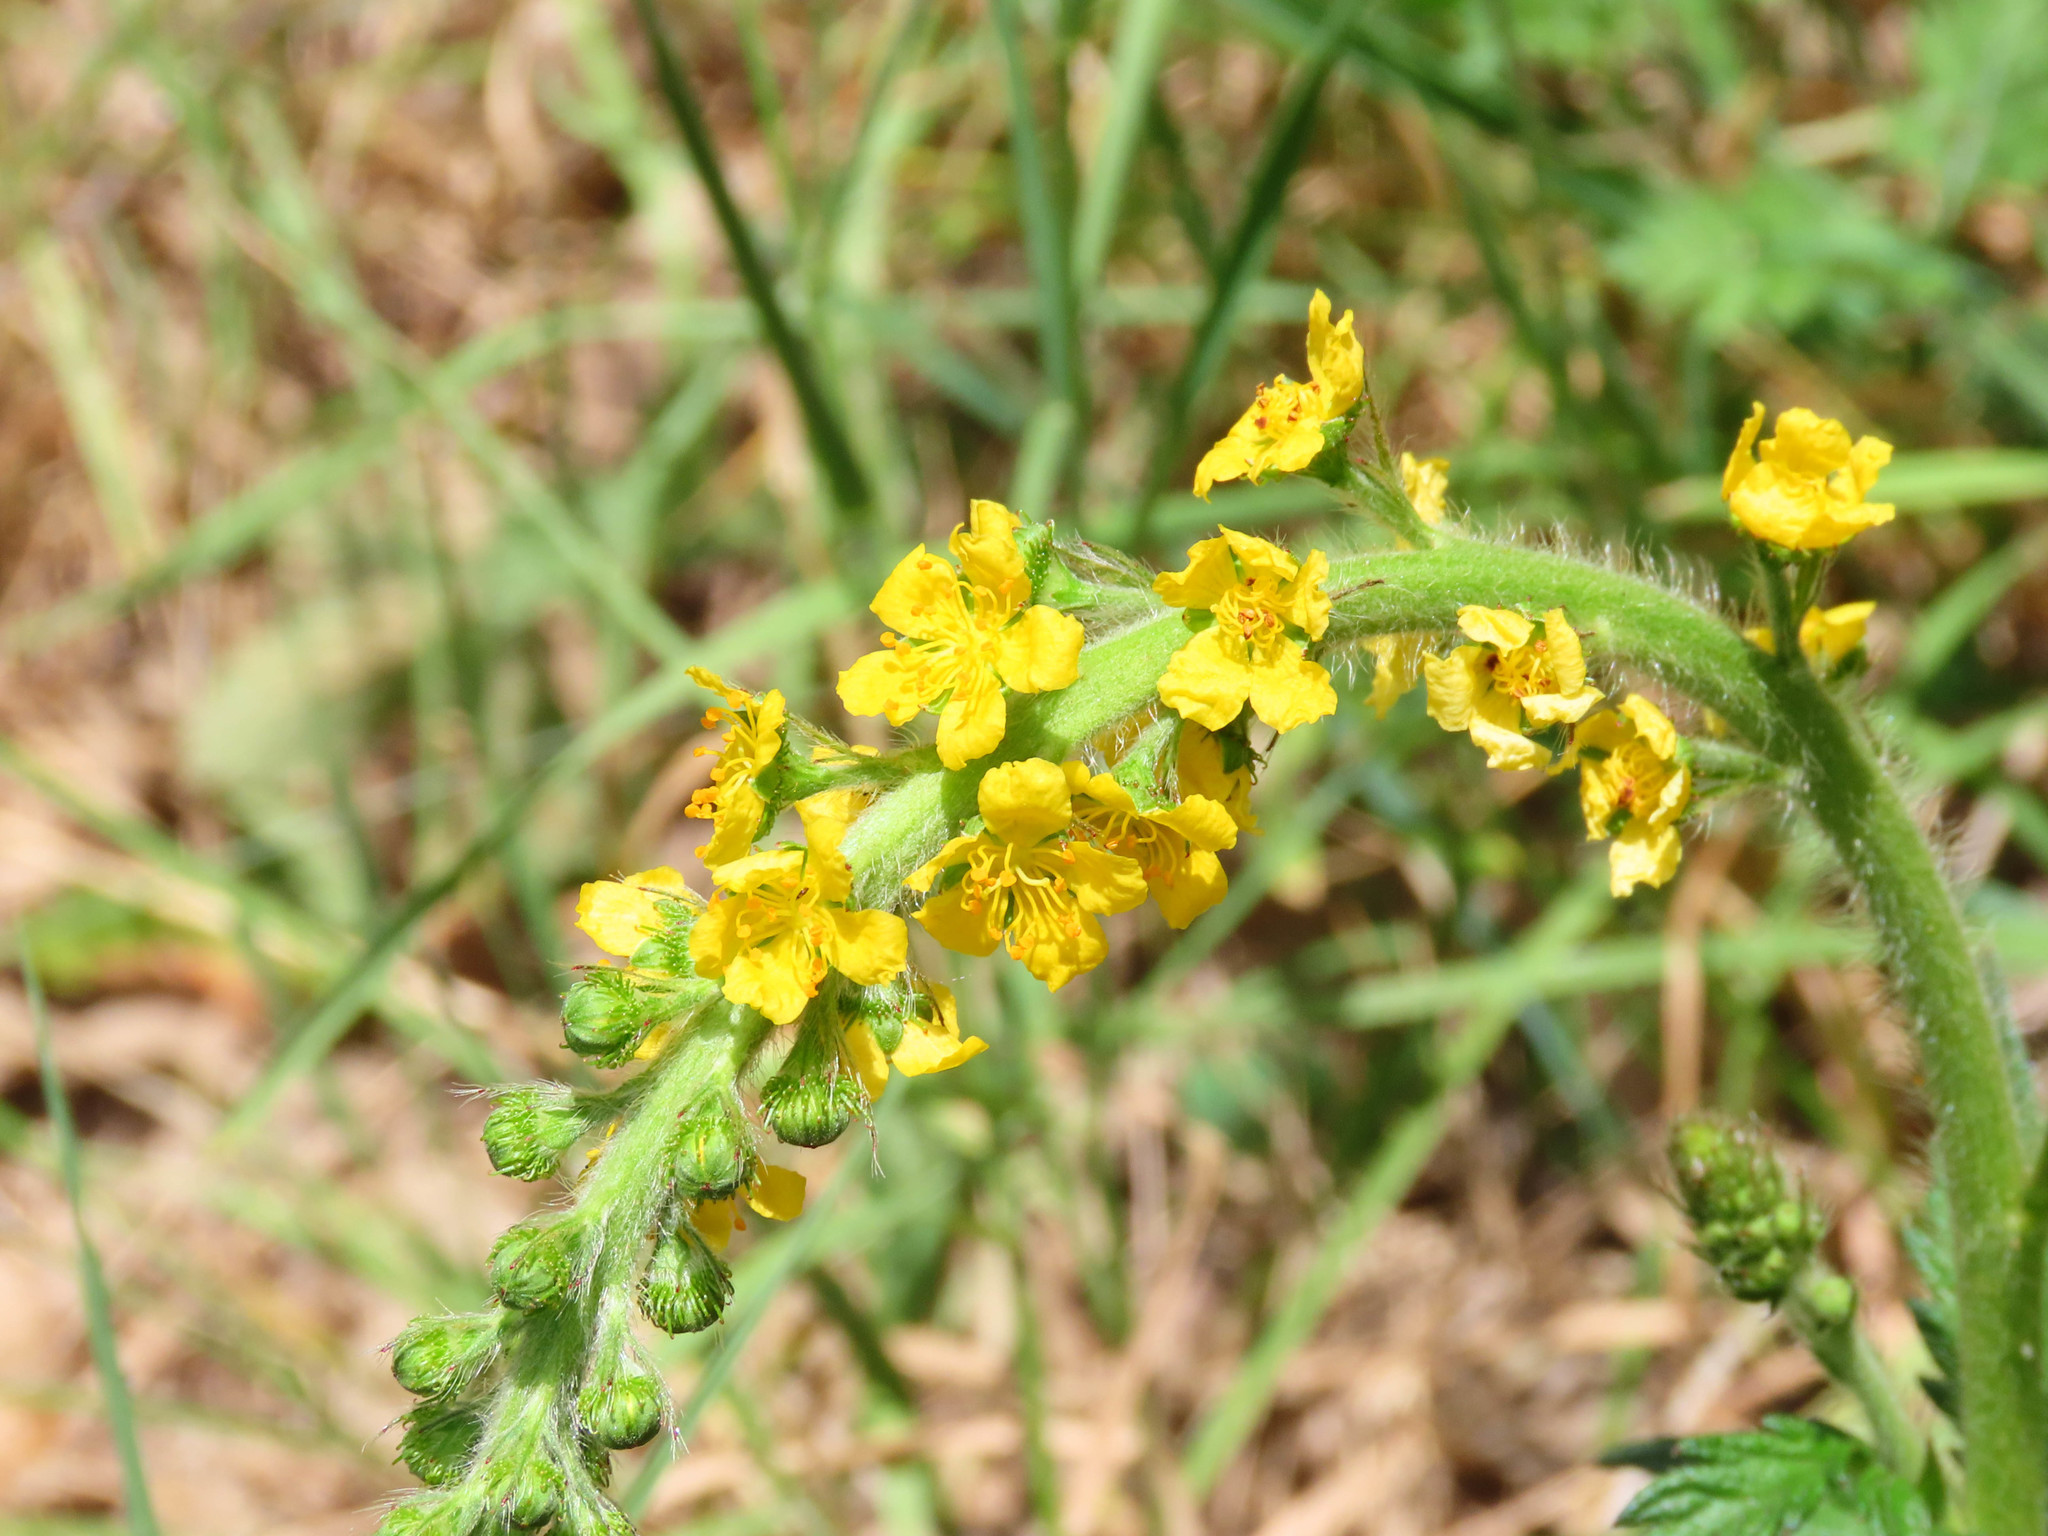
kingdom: Plantae
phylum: Tracheophyta
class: Magnoliopsida
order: Rosales
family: Rosaceae
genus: Agrimonia
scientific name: Agrimonia eupatoria
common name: Agrimony
